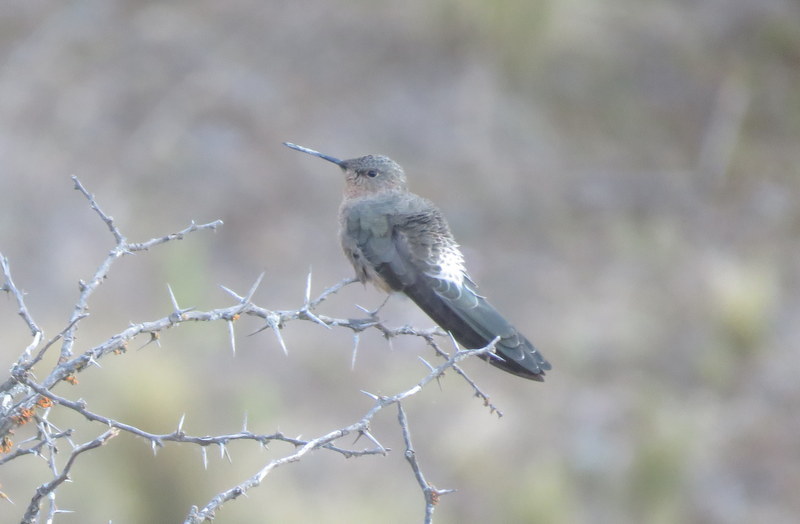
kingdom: Animalia
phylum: Chordata
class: Aves
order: Apodiformes
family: Trochilidae
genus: Patagona
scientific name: Patagona gigas
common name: Giant hummingbird
